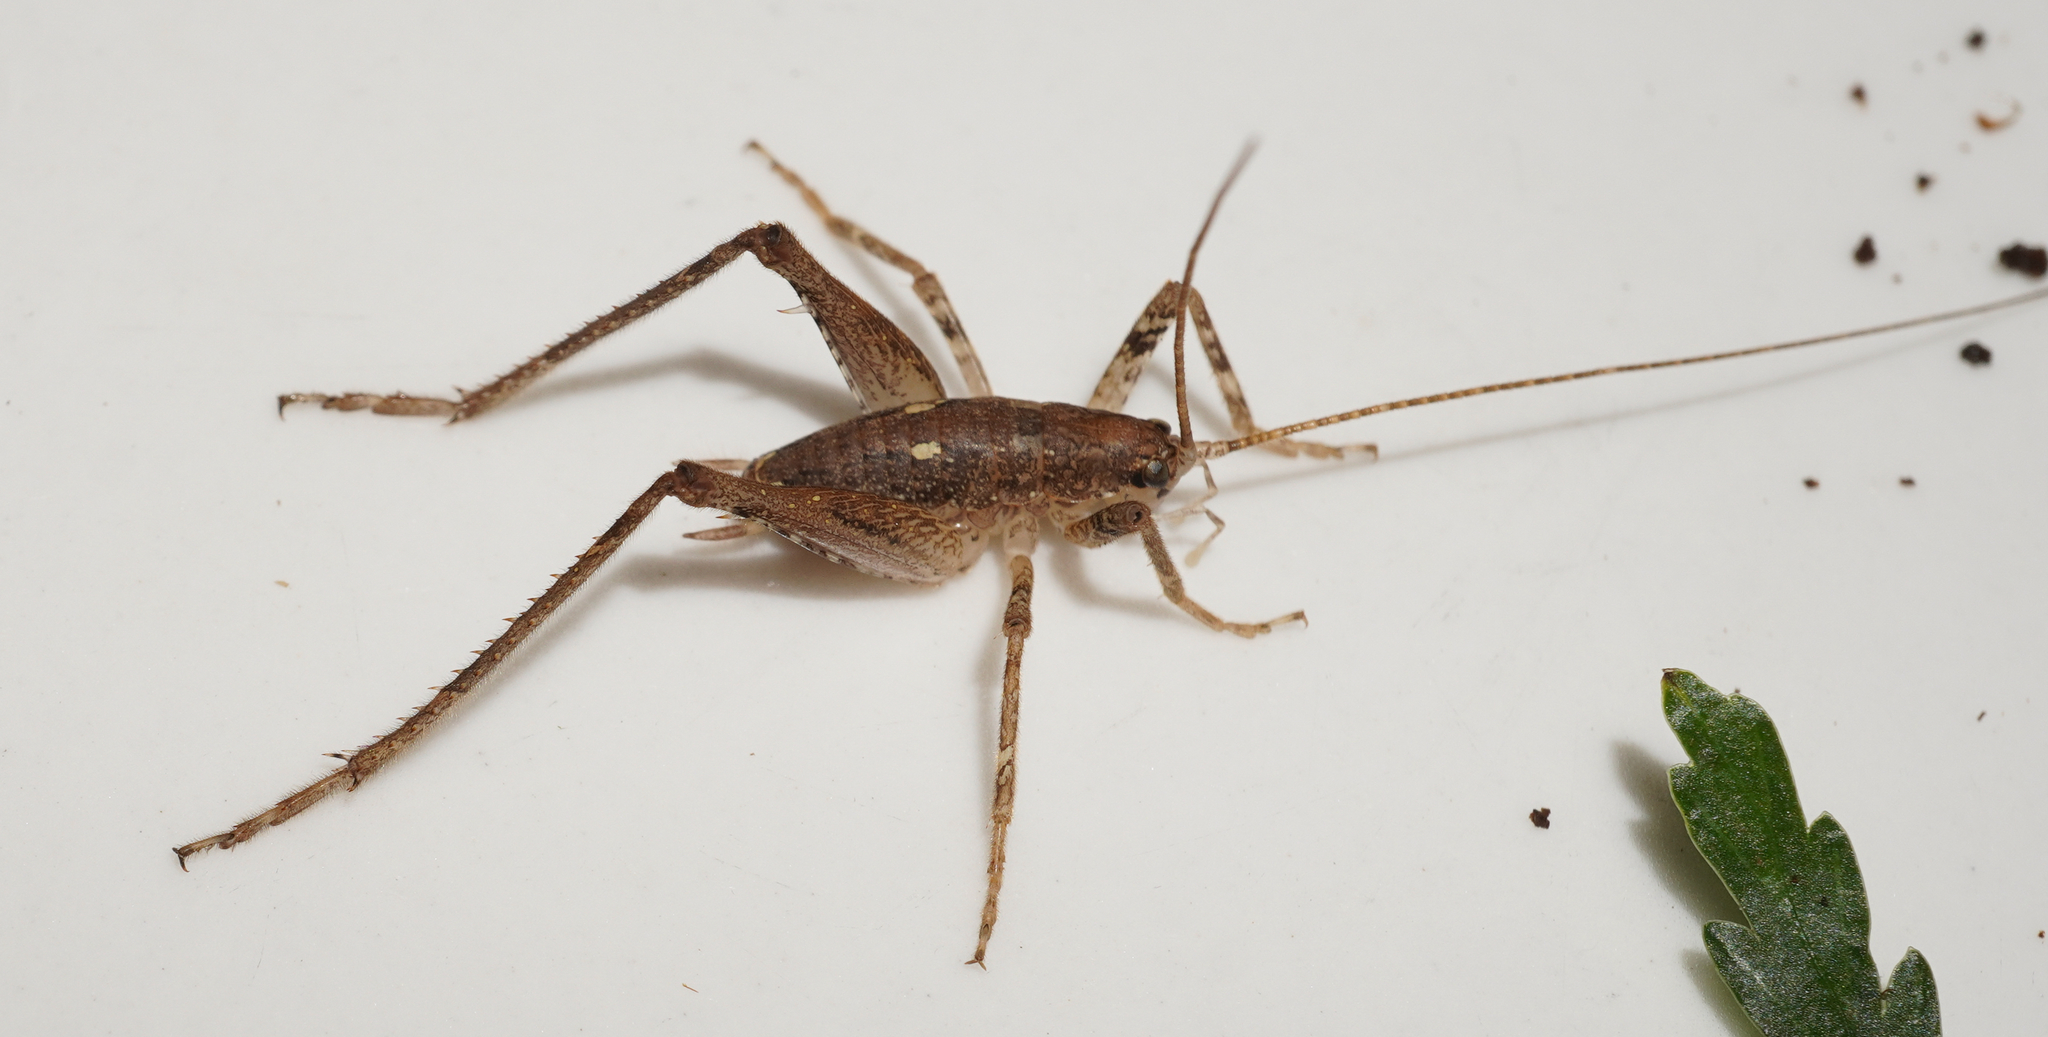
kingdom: Animalia
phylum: Arthropoda
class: Insecta
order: Orthoptera
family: Rhaphidophoridae
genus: Isoplectron
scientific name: Isoplectron armatum
